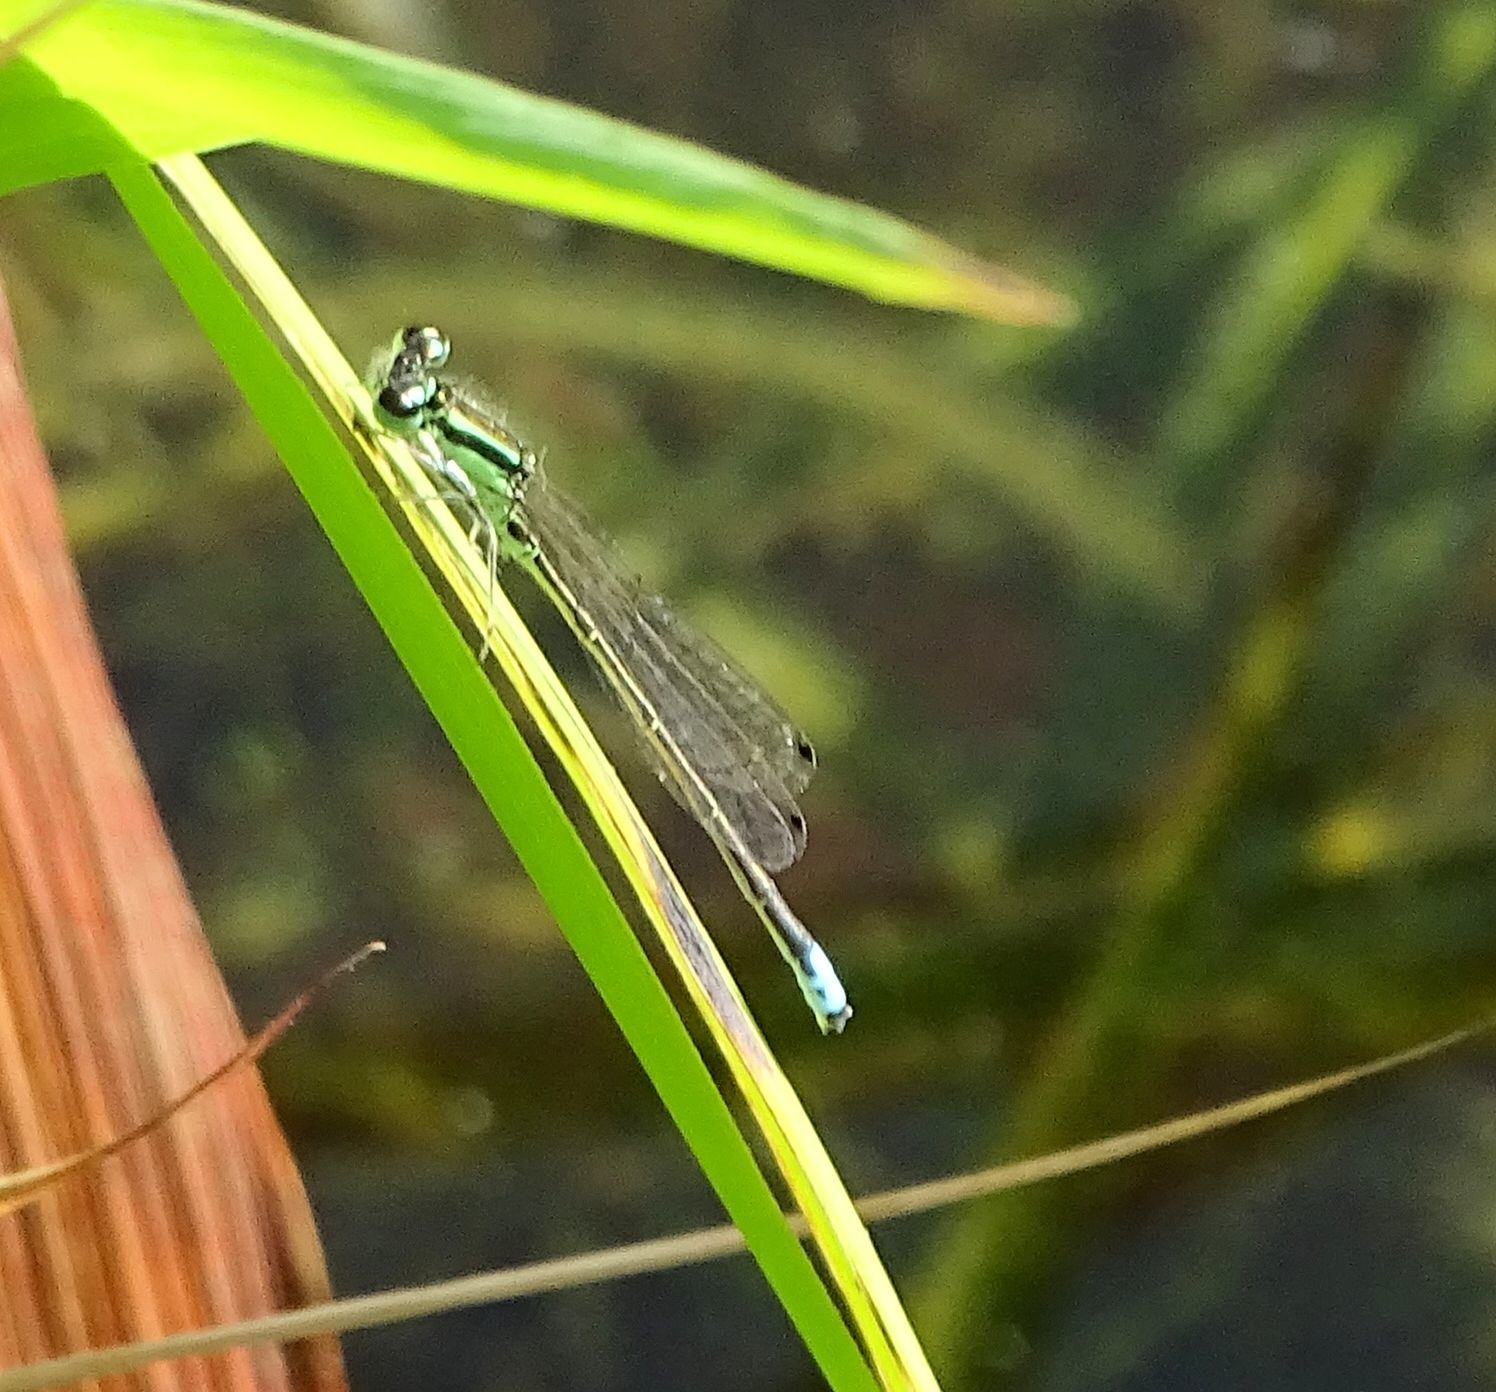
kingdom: Animalia
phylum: Arthropoda
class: Insecta
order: Odonata
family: Coenagrionidae
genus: Ischnura
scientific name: Ischnura verticalis
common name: Eastern forktail
